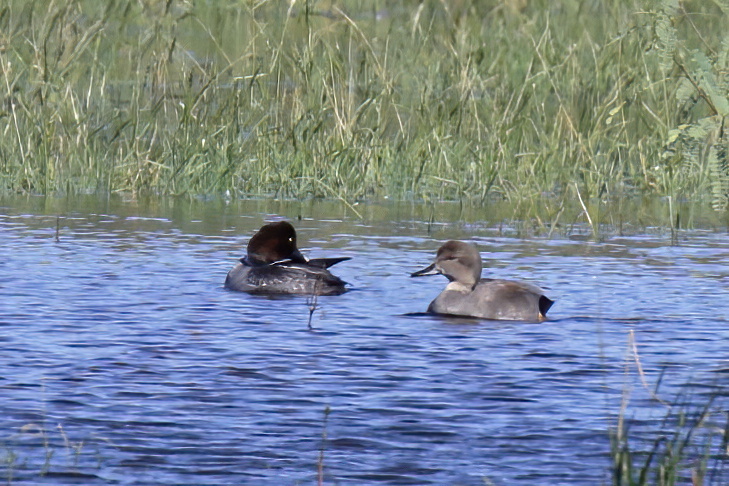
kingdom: Animalia
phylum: Chordata
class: Aves
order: Anseriformes
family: Anatidae
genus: Bucephala
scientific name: Bucephala clangula
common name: Common goldeneye
